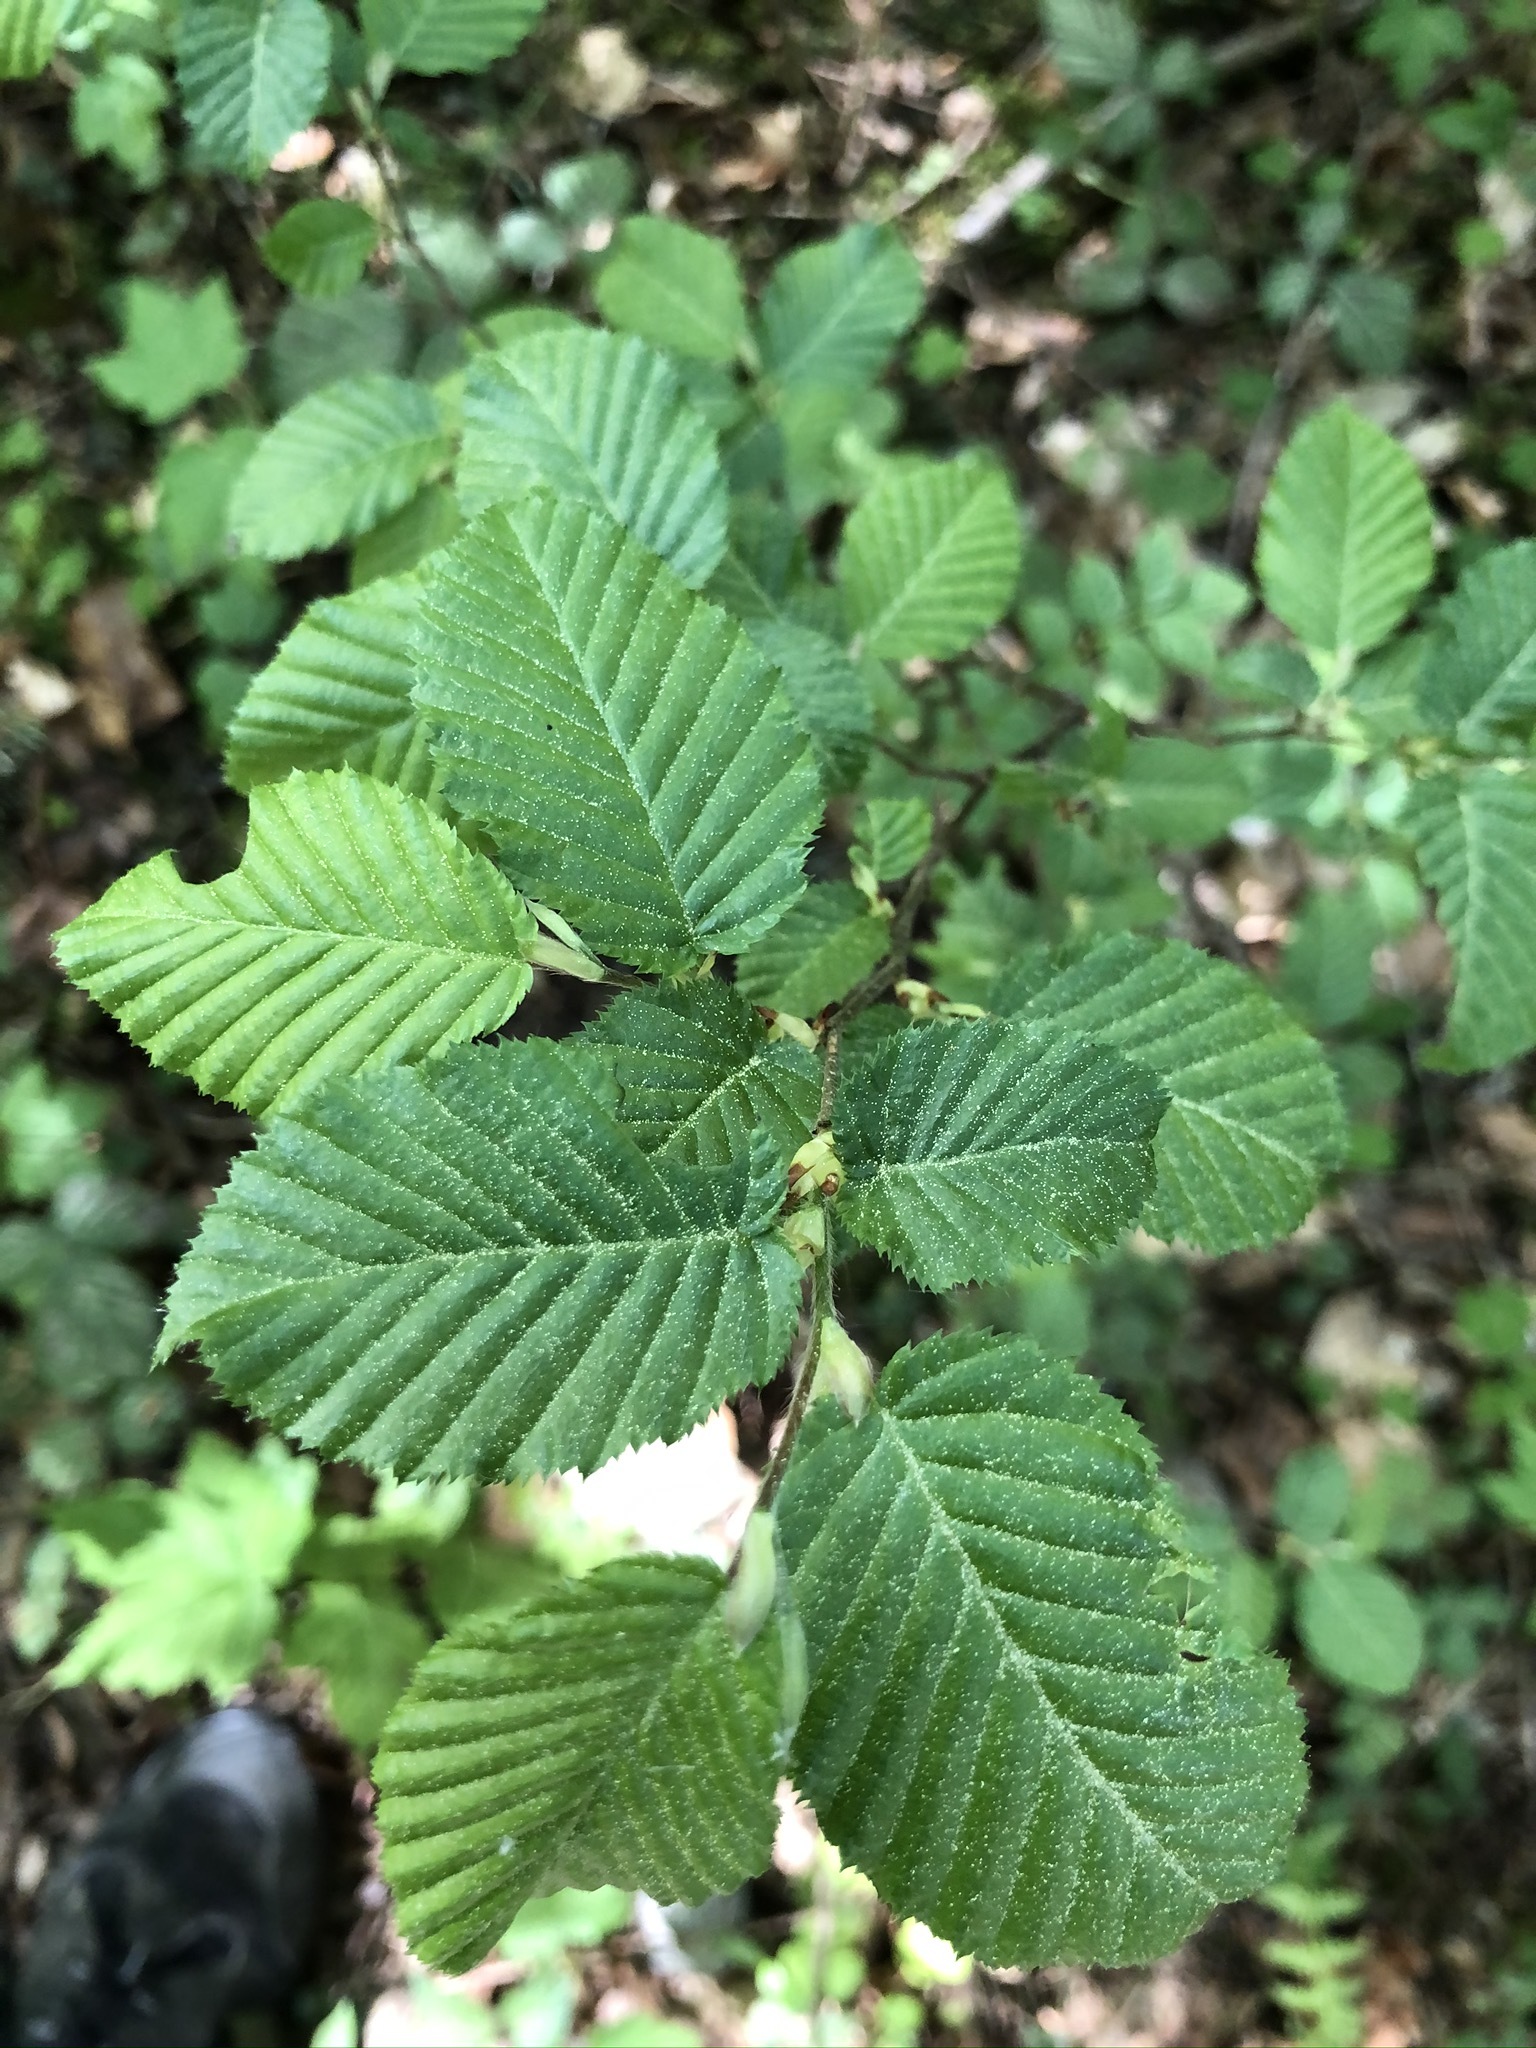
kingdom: Plantae
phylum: Tracheophyta
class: Magnoliopsida
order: Fagales
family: Betulaceae
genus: Carpinus
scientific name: Carpinus betulus
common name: Hornbeam
